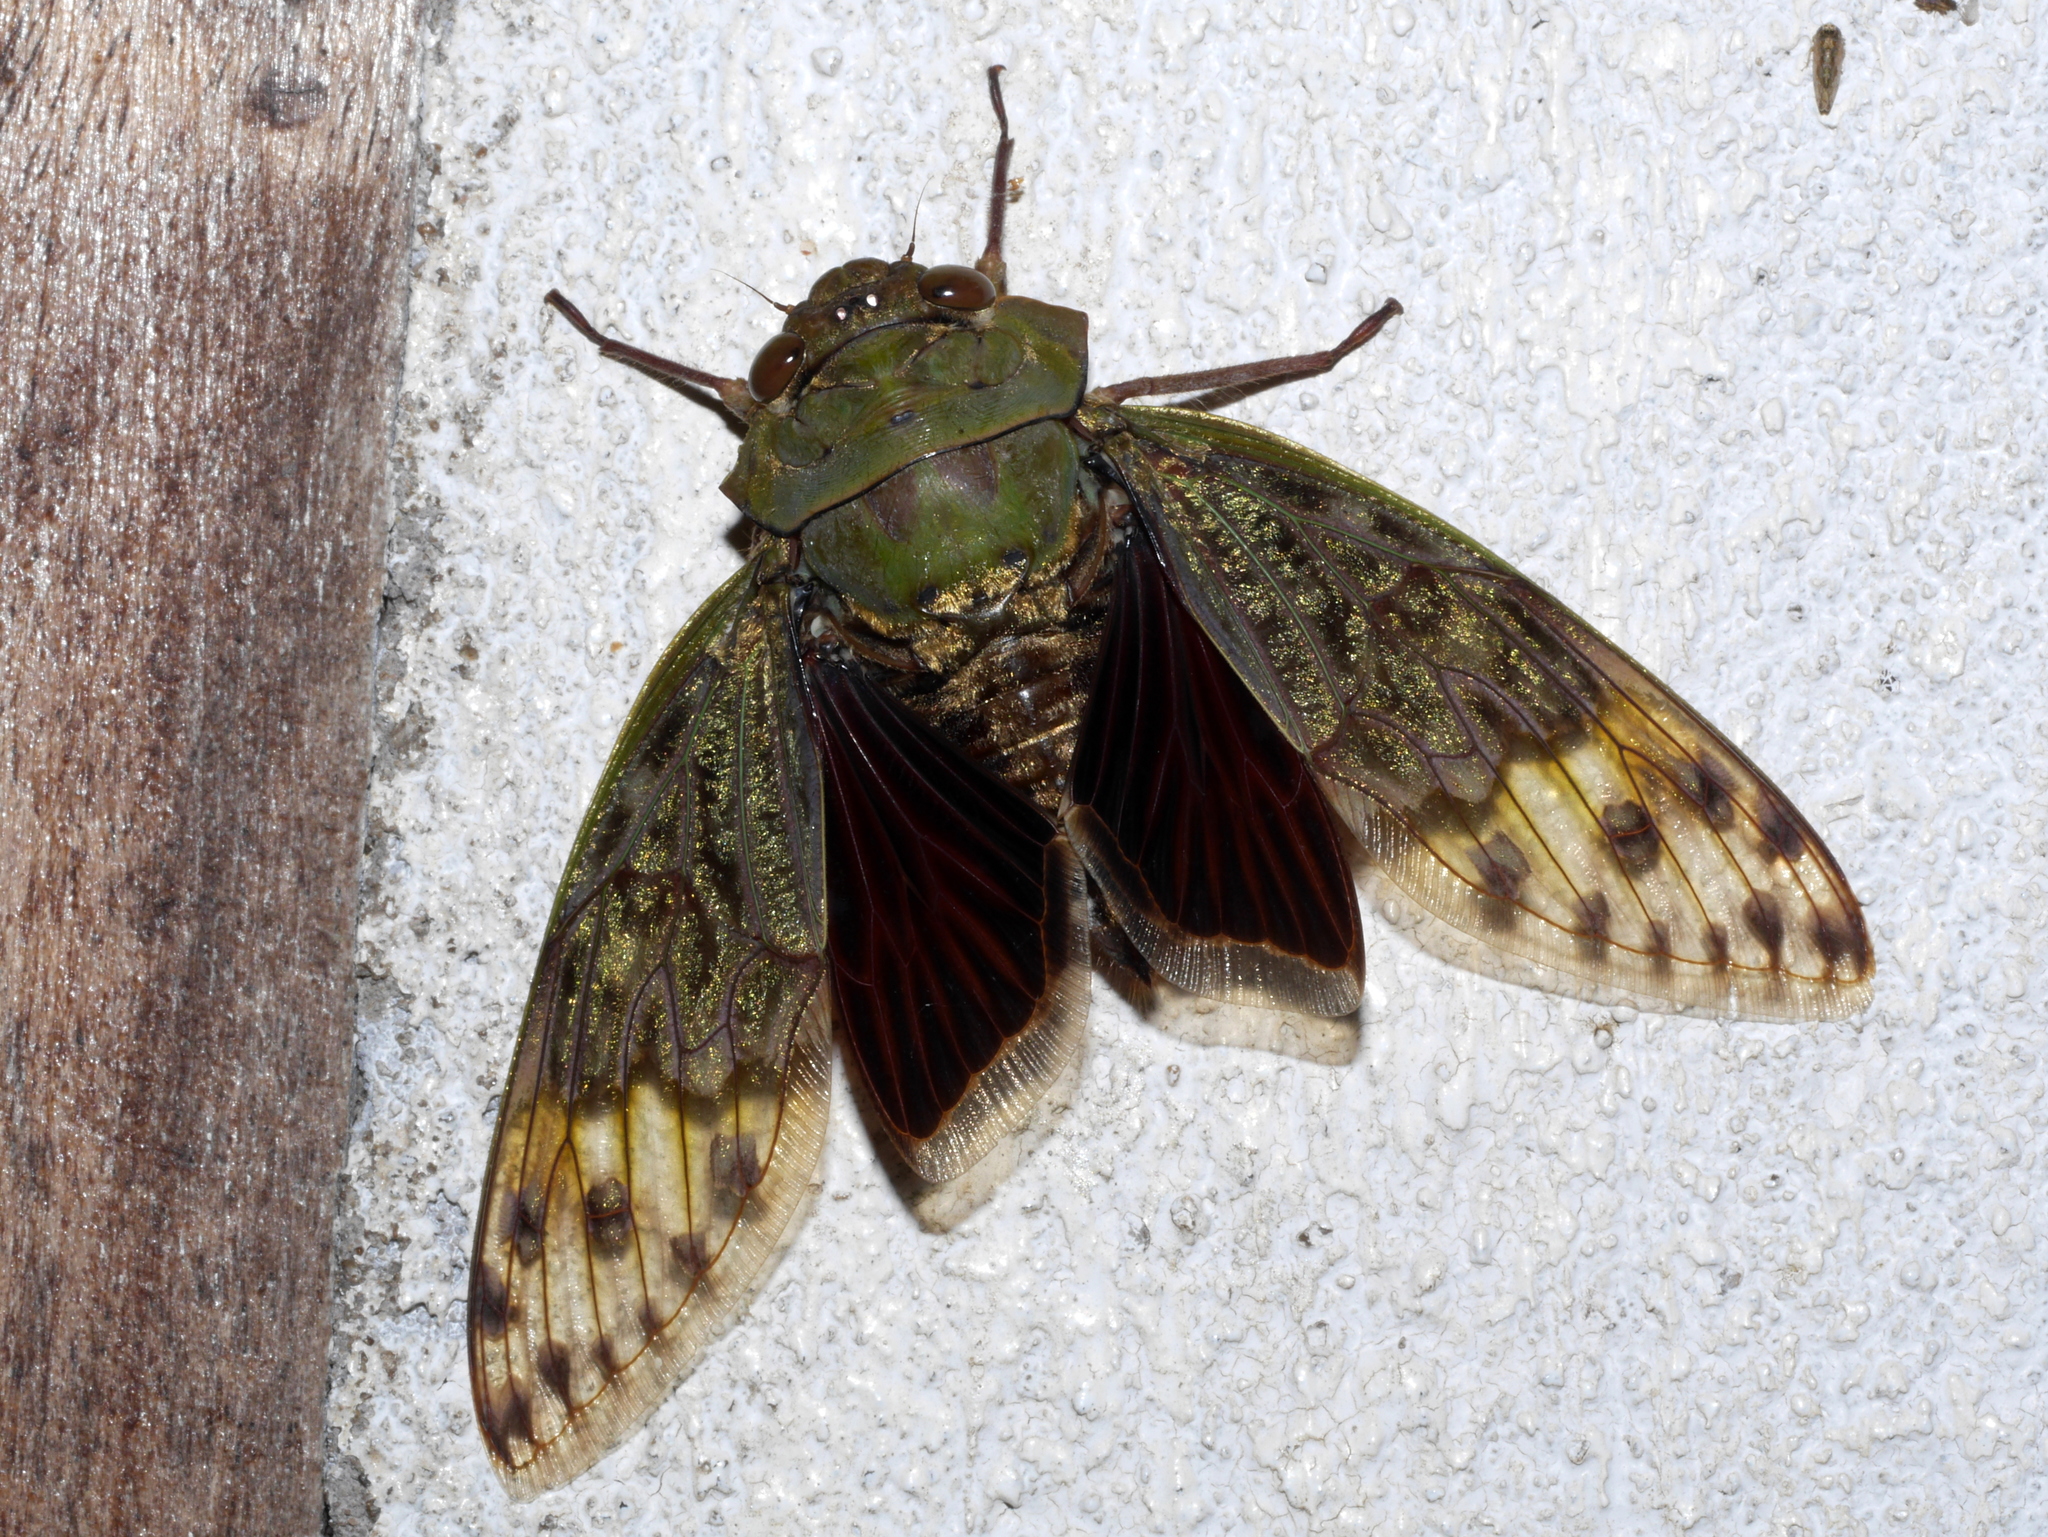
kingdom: Animalia
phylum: Arthropoda
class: Insecta
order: Hemiptera
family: Cicadidae
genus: Ugada
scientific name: Ugada grandicollis
